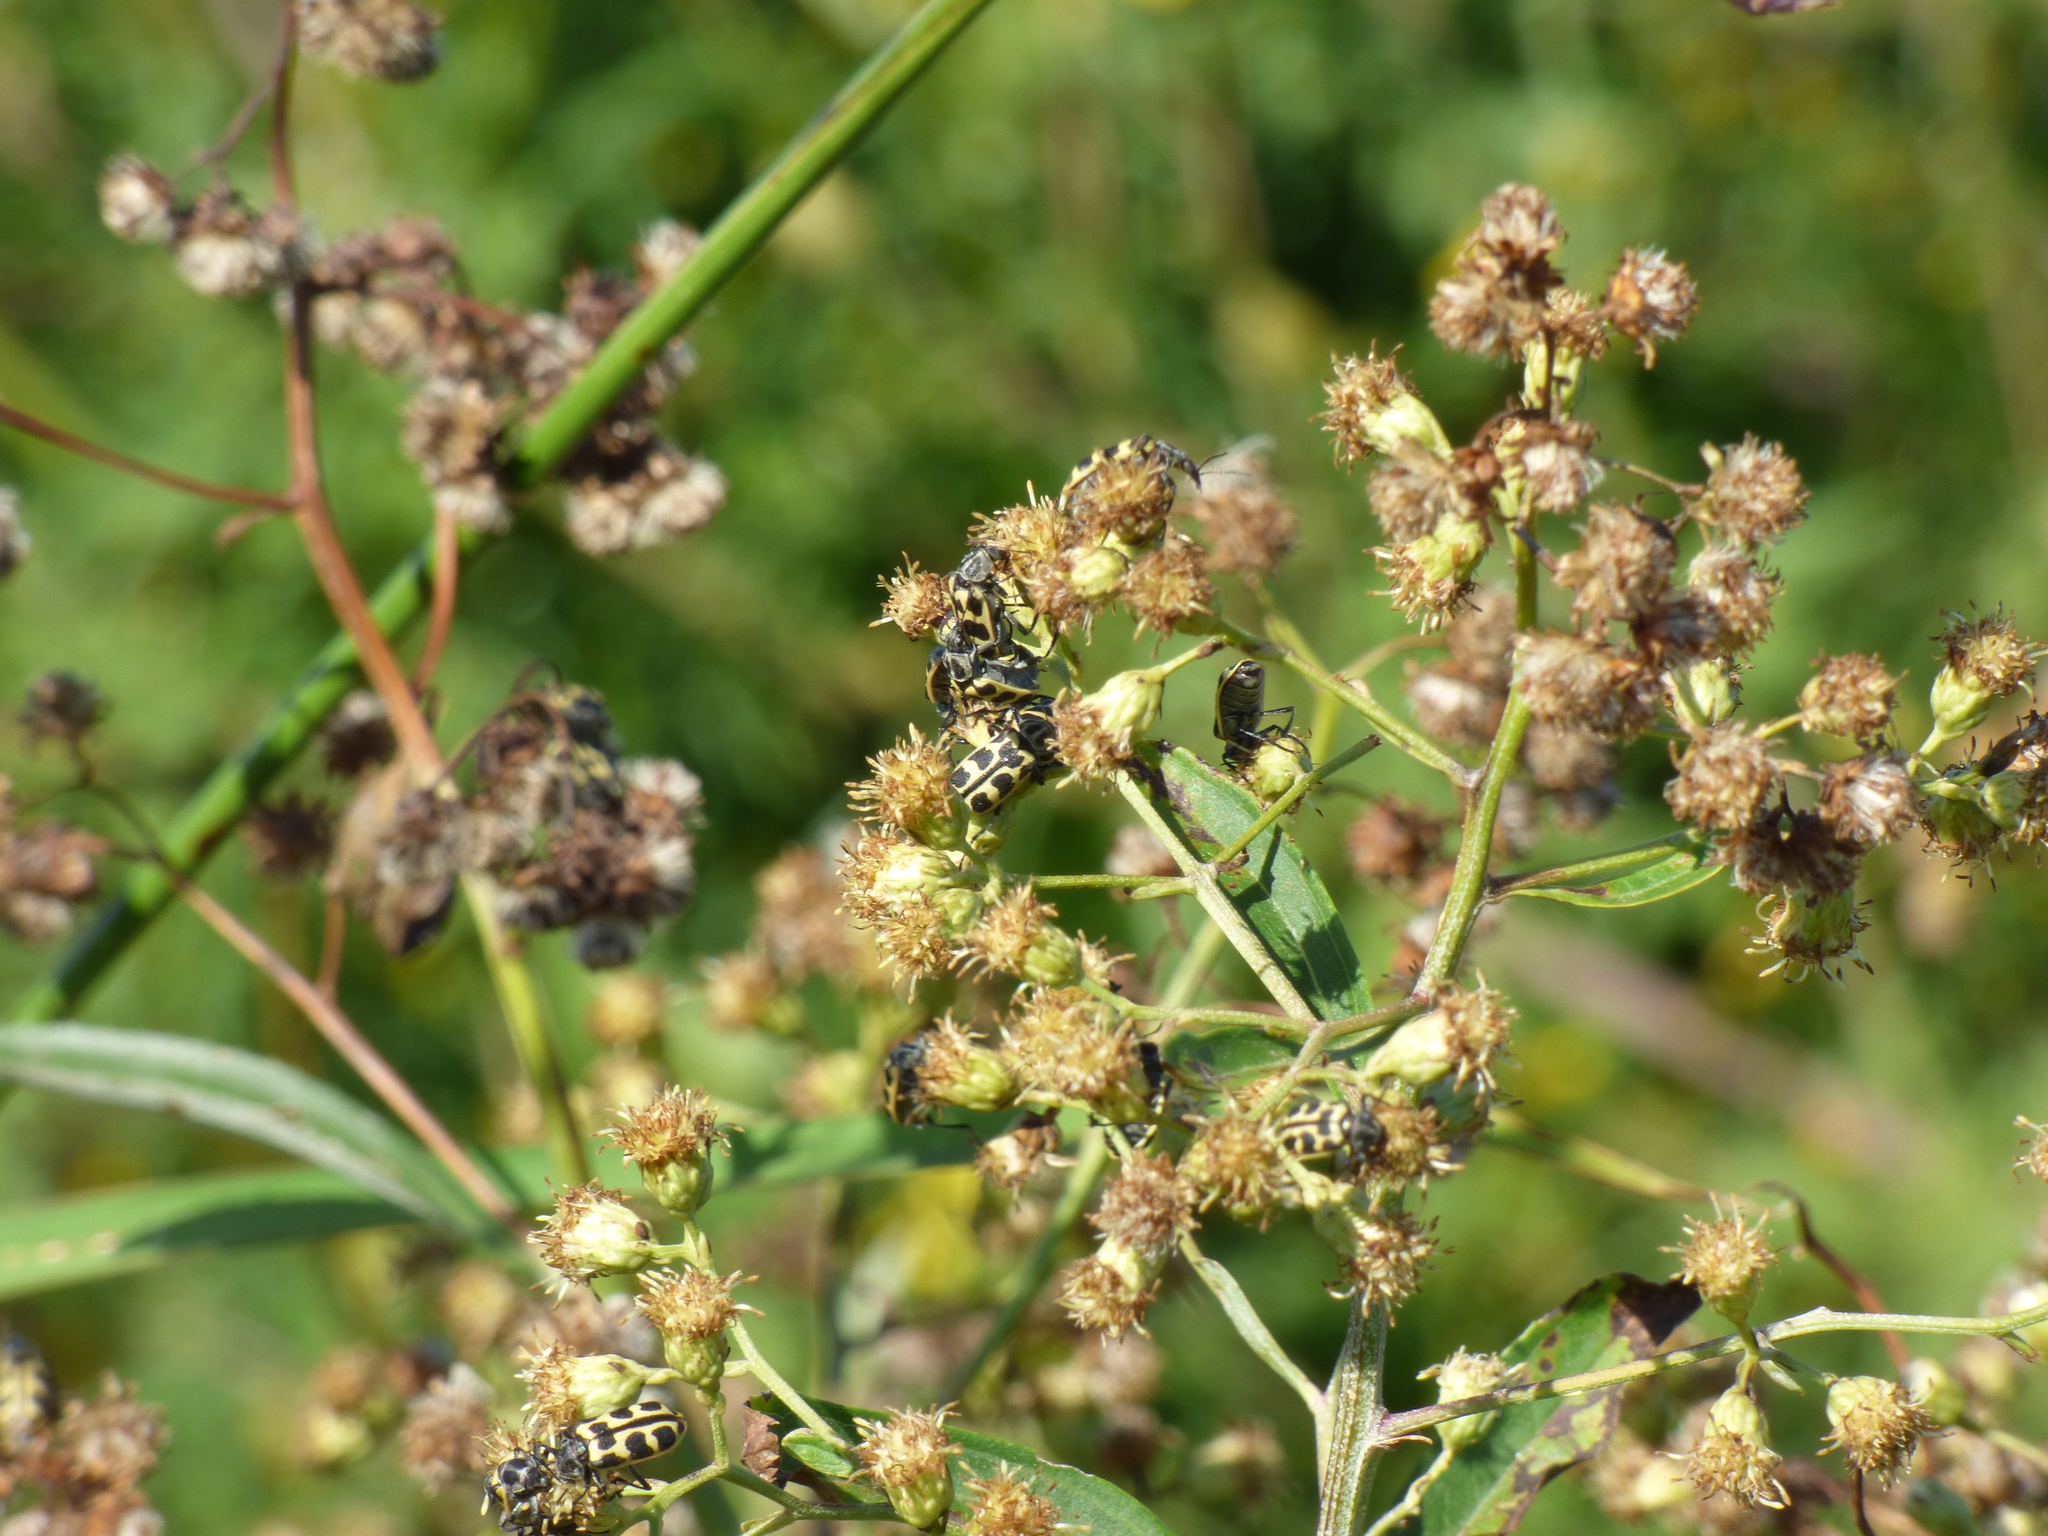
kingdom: Animalia
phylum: Arthropoda
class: Insecta
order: Coleoptera
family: Melyridae
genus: Astylus
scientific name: Astylus atromaculatus
